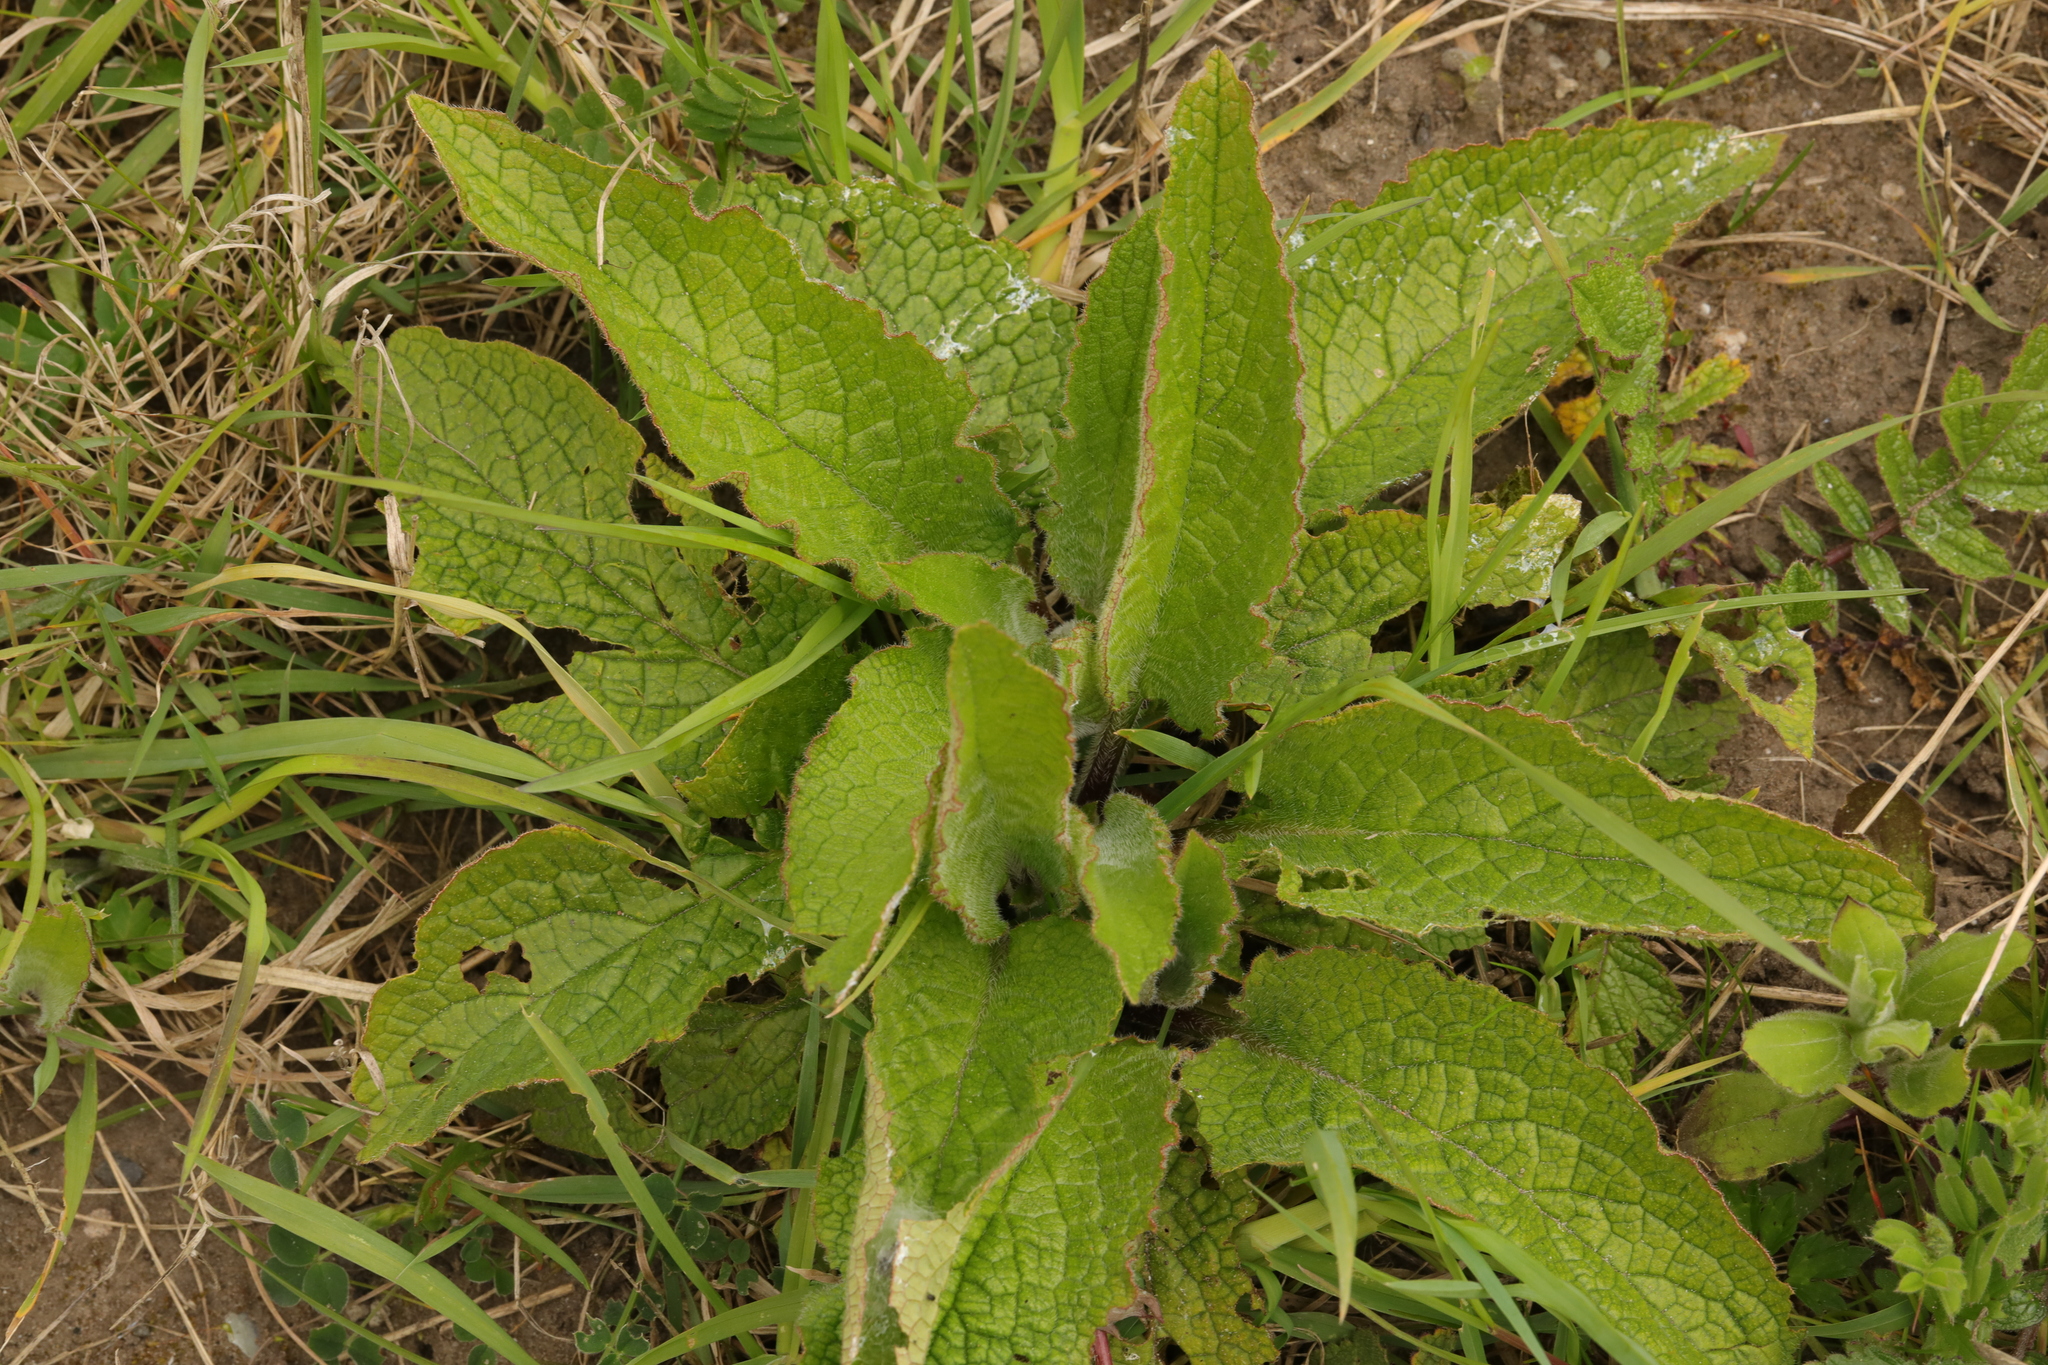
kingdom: Plantae
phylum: Tracheophyta
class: Magnoliopsida
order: Boraginales
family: Boraginaceae
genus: Symphytum
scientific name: Symphytum uplandicum
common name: Russian comfrey
